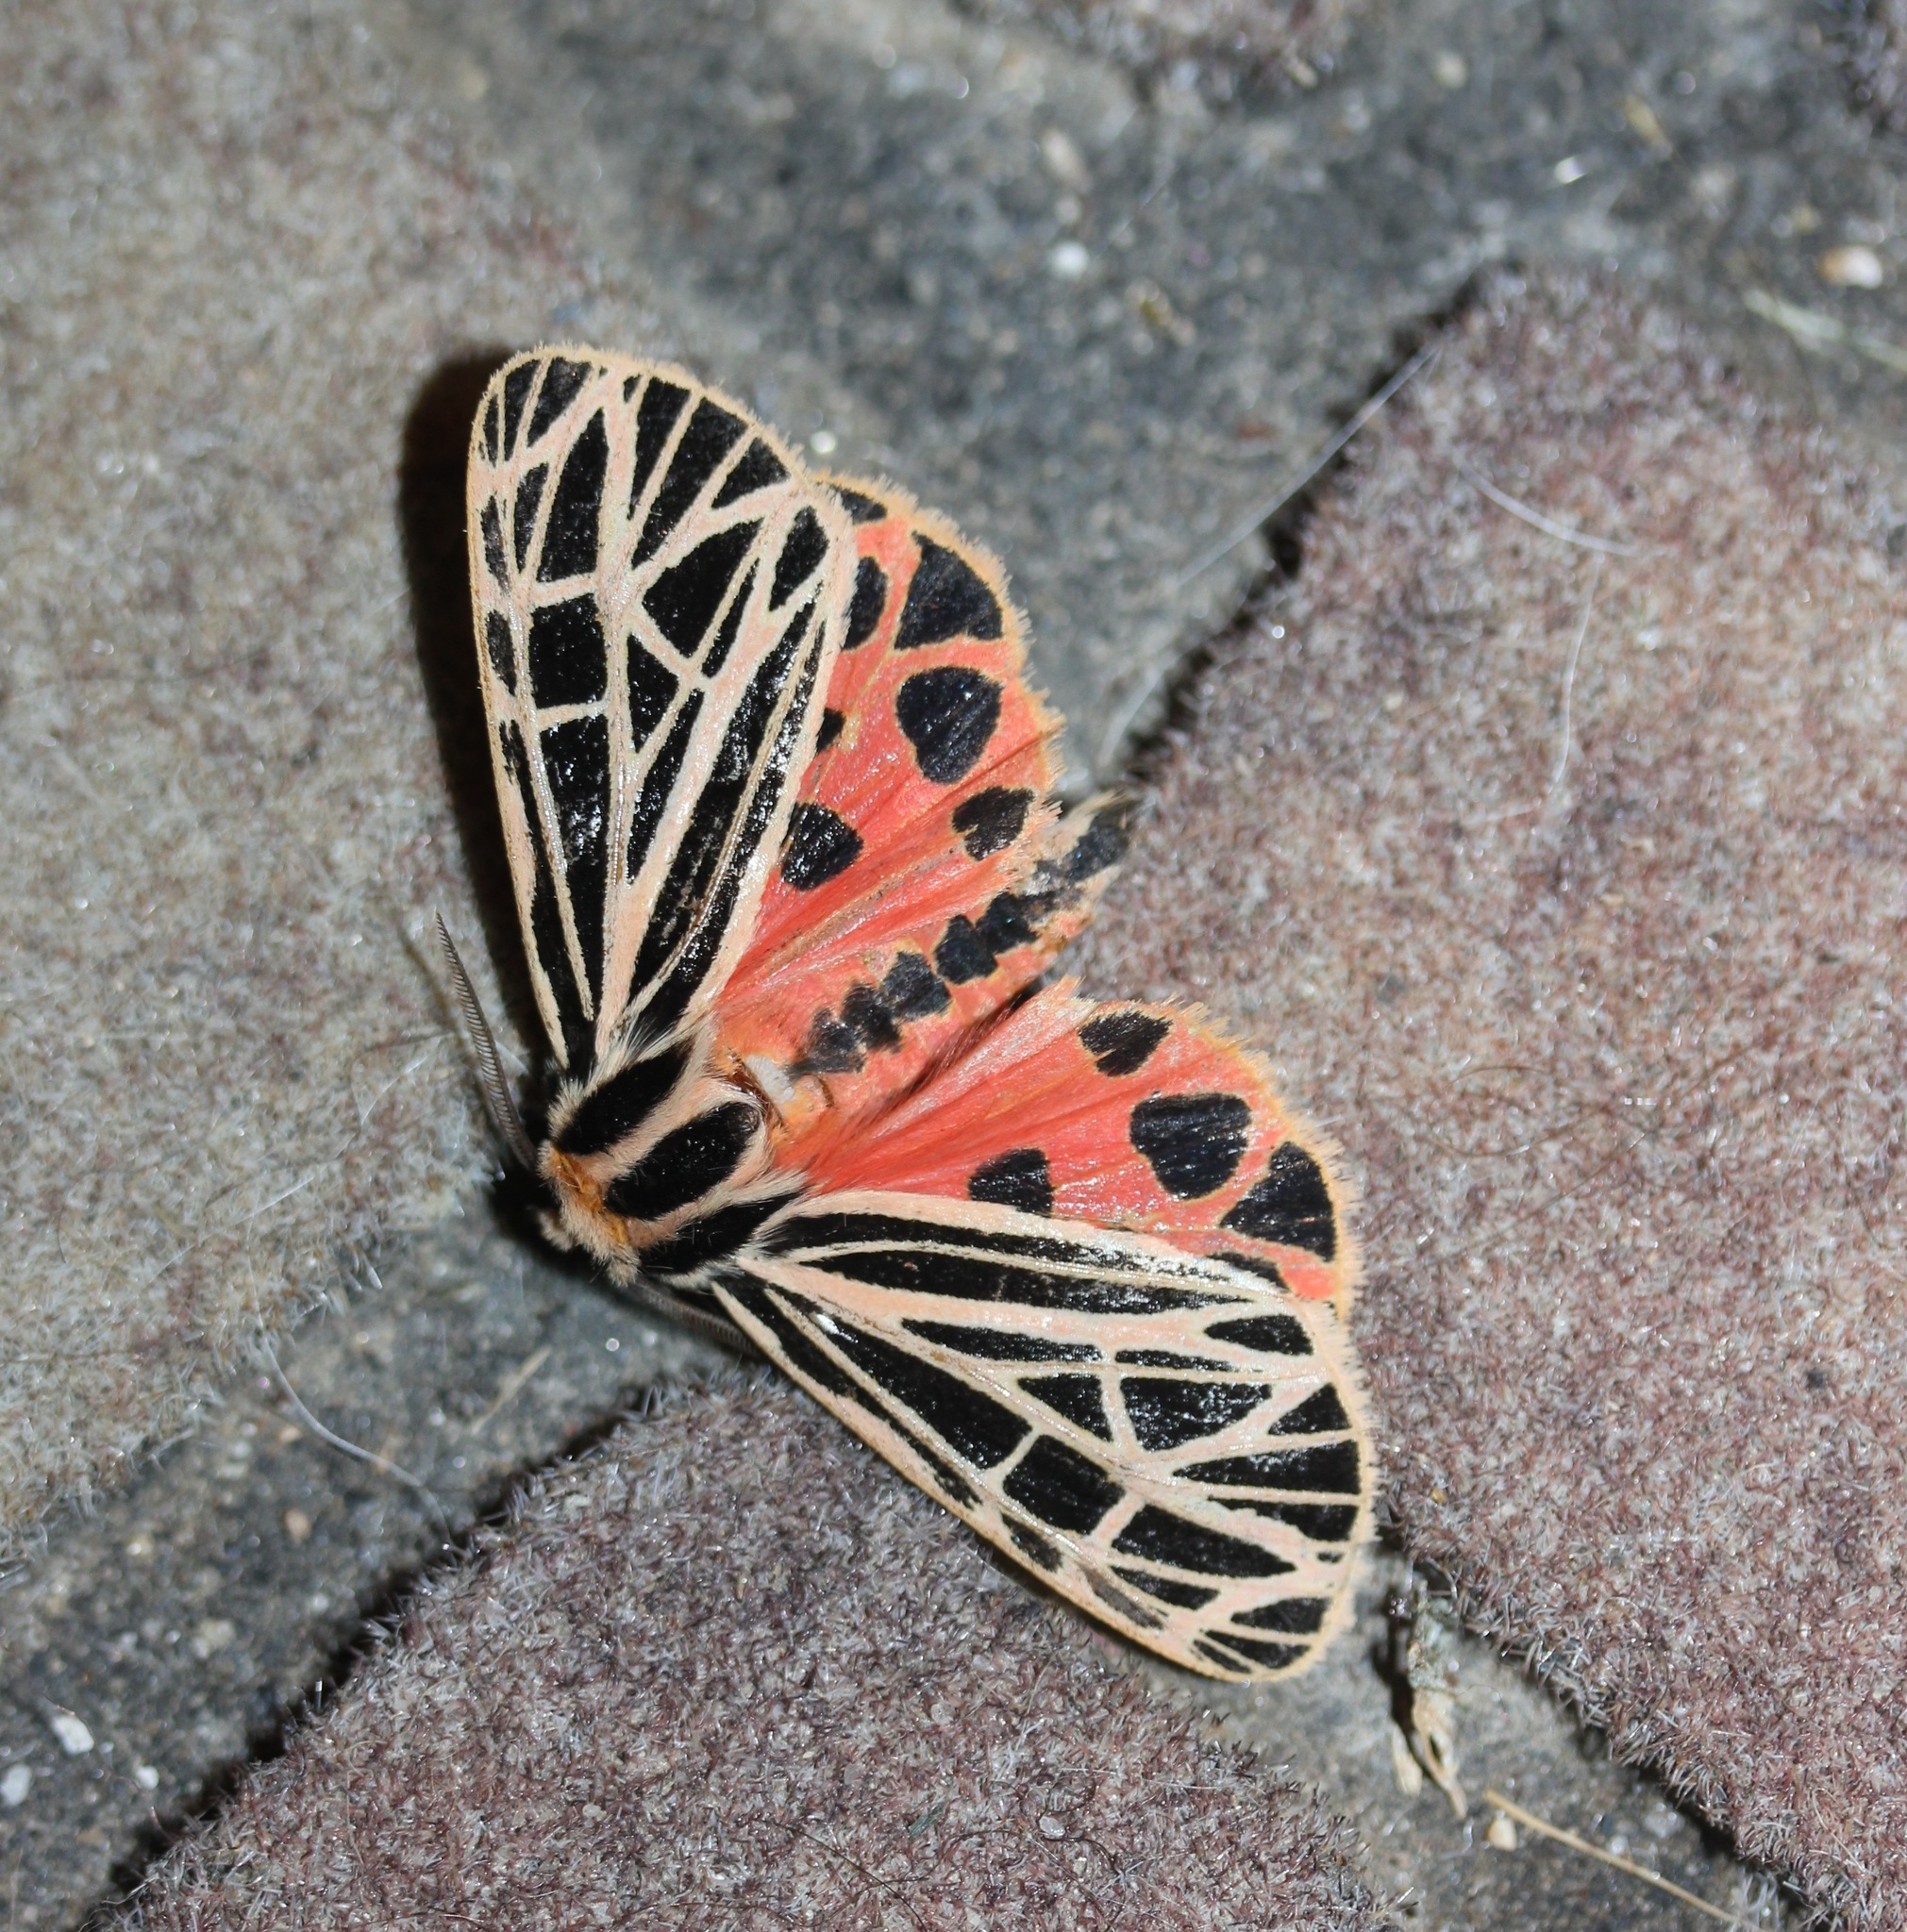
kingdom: Animalia
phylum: Arthropoda
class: Insecta
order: Lepidoptera
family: Erebidae
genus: Grammia
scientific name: Grammia virgo
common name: Virgin tiger moth
